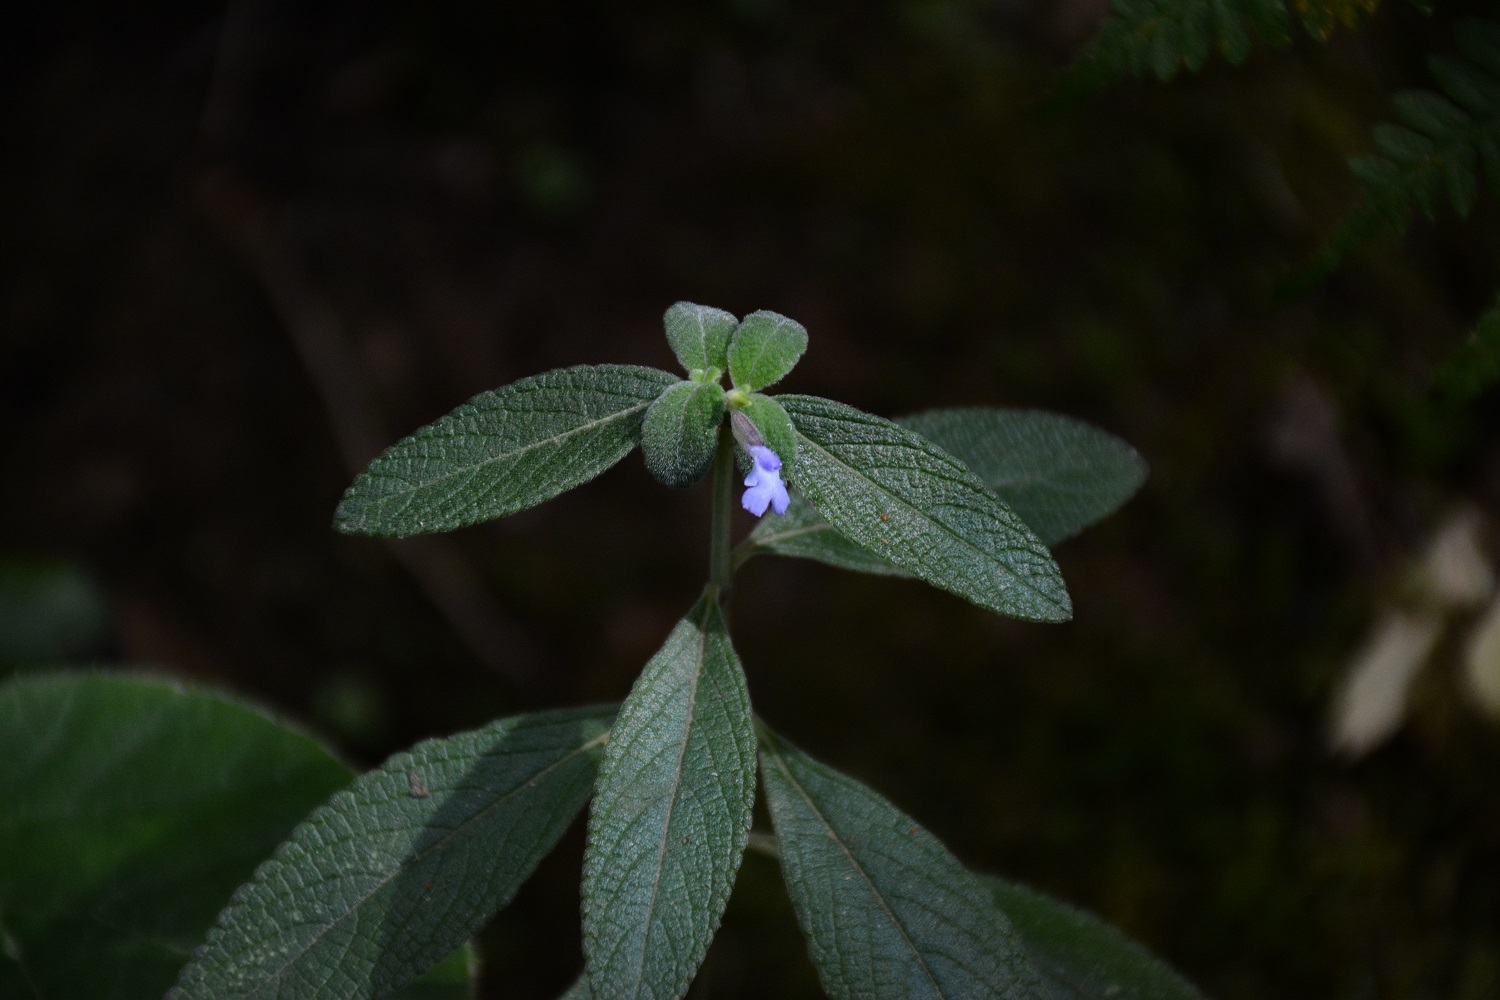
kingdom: Plantae
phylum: Tracheophyta
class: Magnoliopsida
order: Lamiales
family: Lamiaceae
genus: Salvia
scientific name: Salvia lavanduloides
